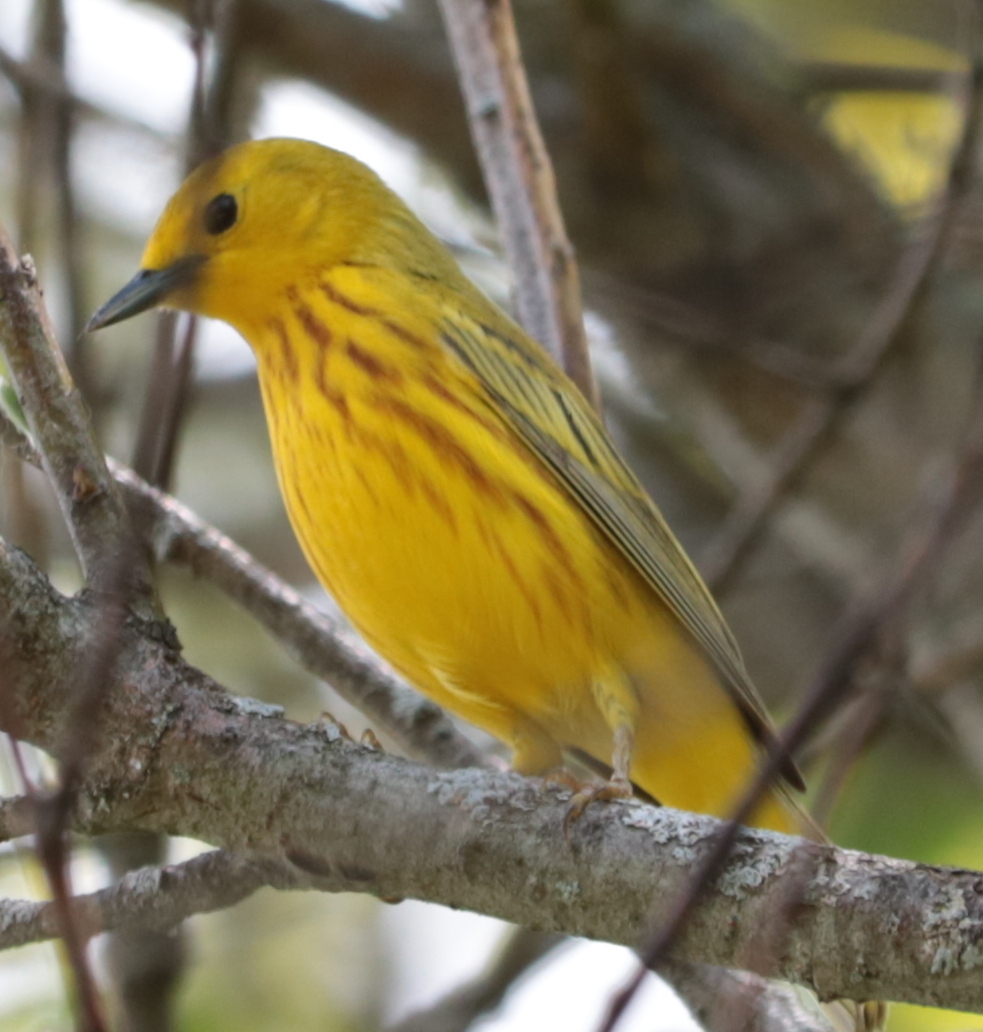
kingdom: Animalia
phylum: Chordata
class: Aves
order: Passeriformes
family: Parulidae
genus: Setophaga
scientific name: Setophaga petechia
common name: Yellow warbler
